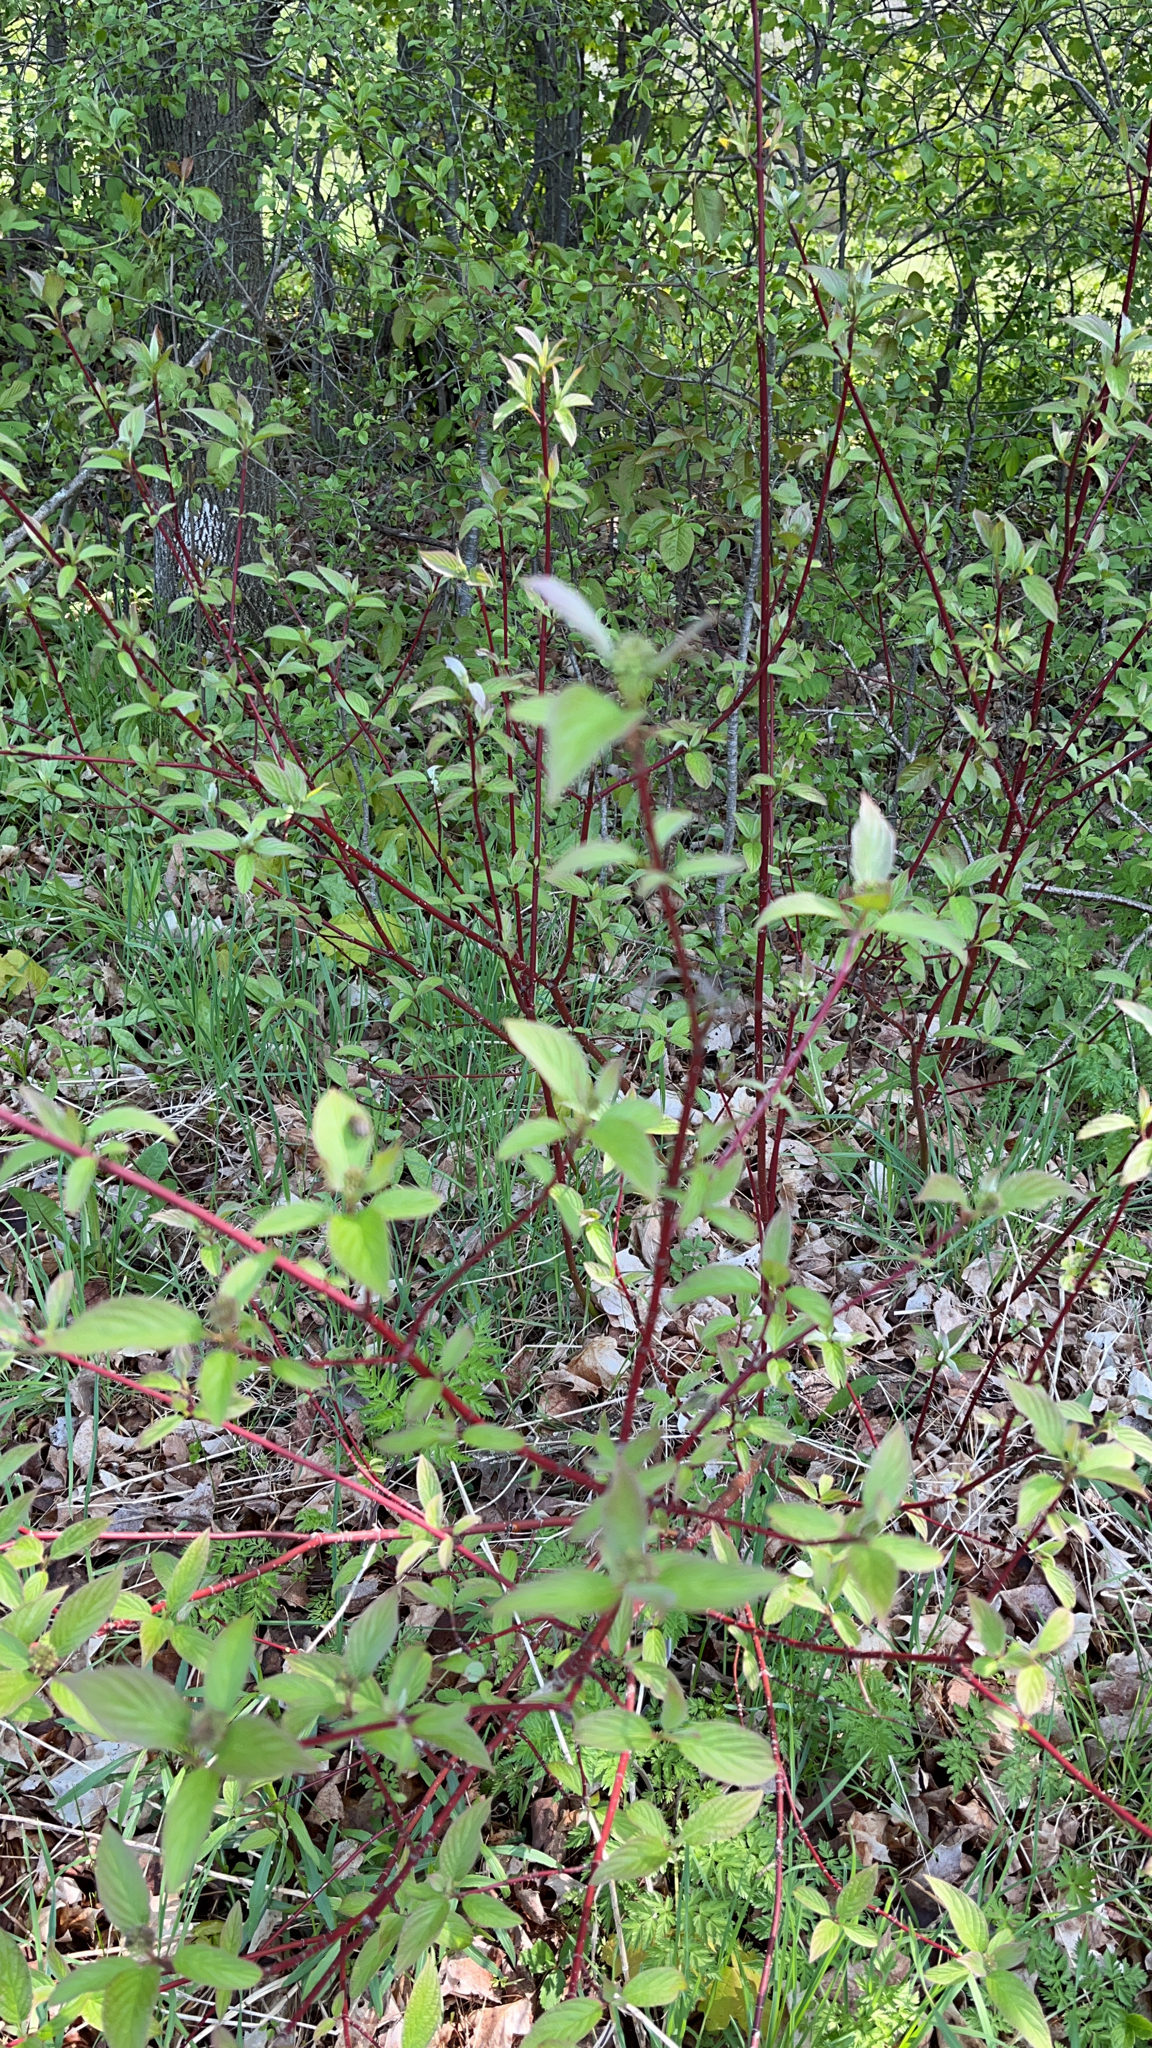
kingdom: Plantae
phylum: Tracheophyta
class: Magnoliopsida
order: Cornales
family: Cornaceae
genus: Cornus
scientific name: Cornus sericea
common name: Red-osier dogwood
